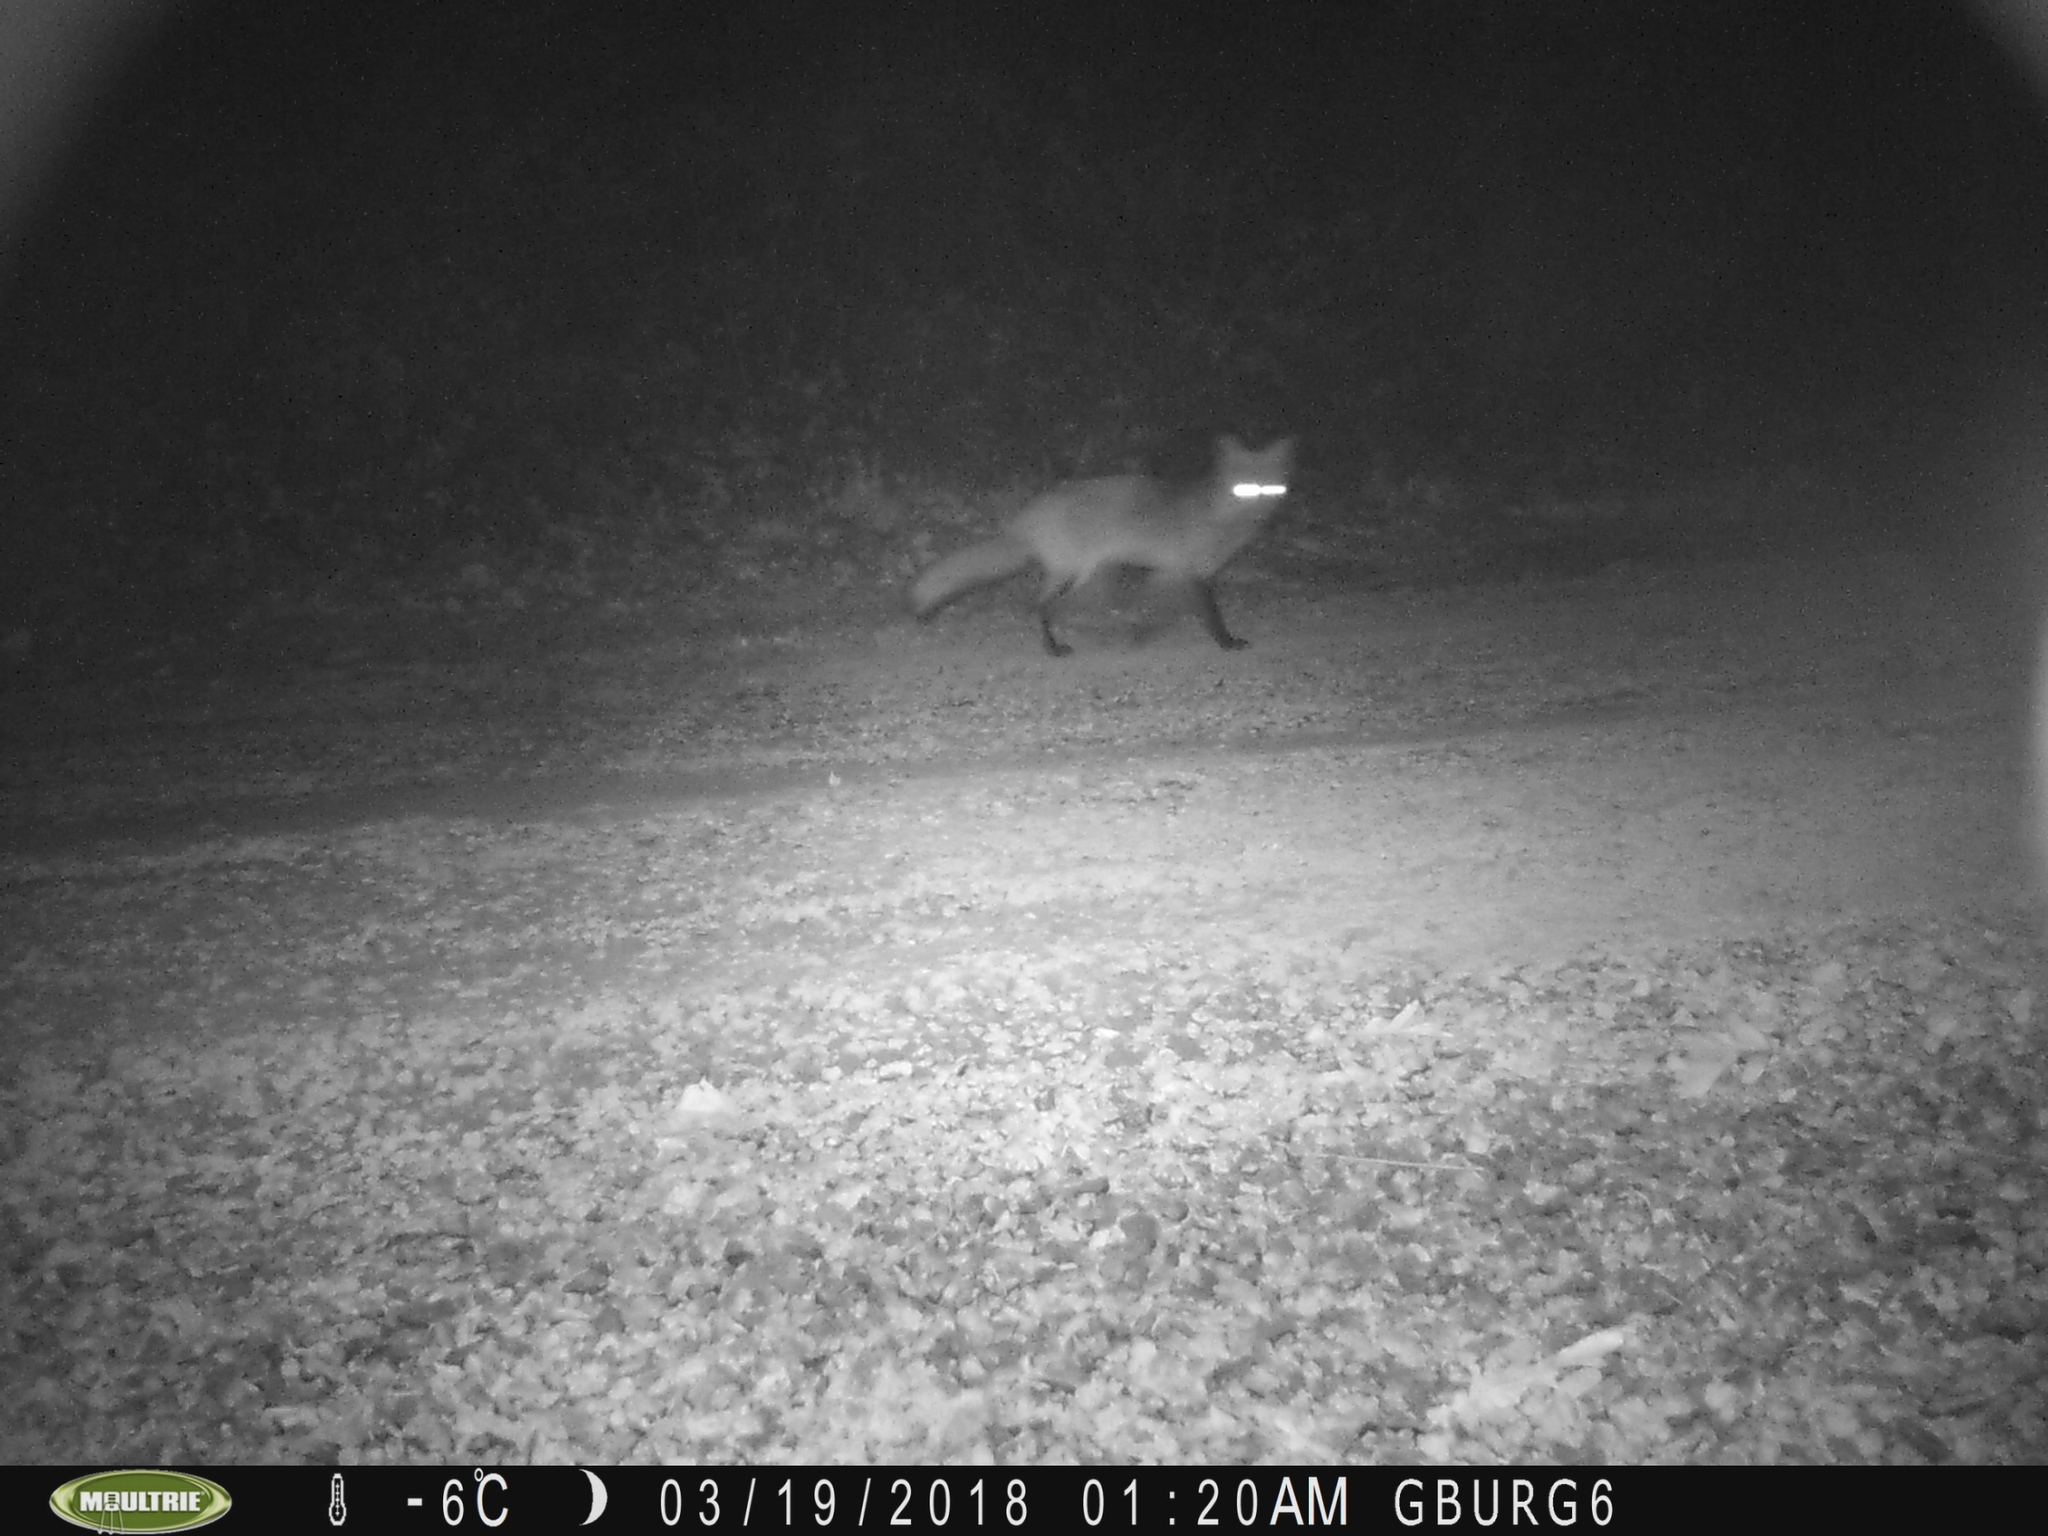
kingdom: Animalia
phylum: Chordata
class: Mammalia
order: Carnivora
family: Canidae
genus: Vulpes
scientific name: Vulpes vulpes
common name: Red fox
